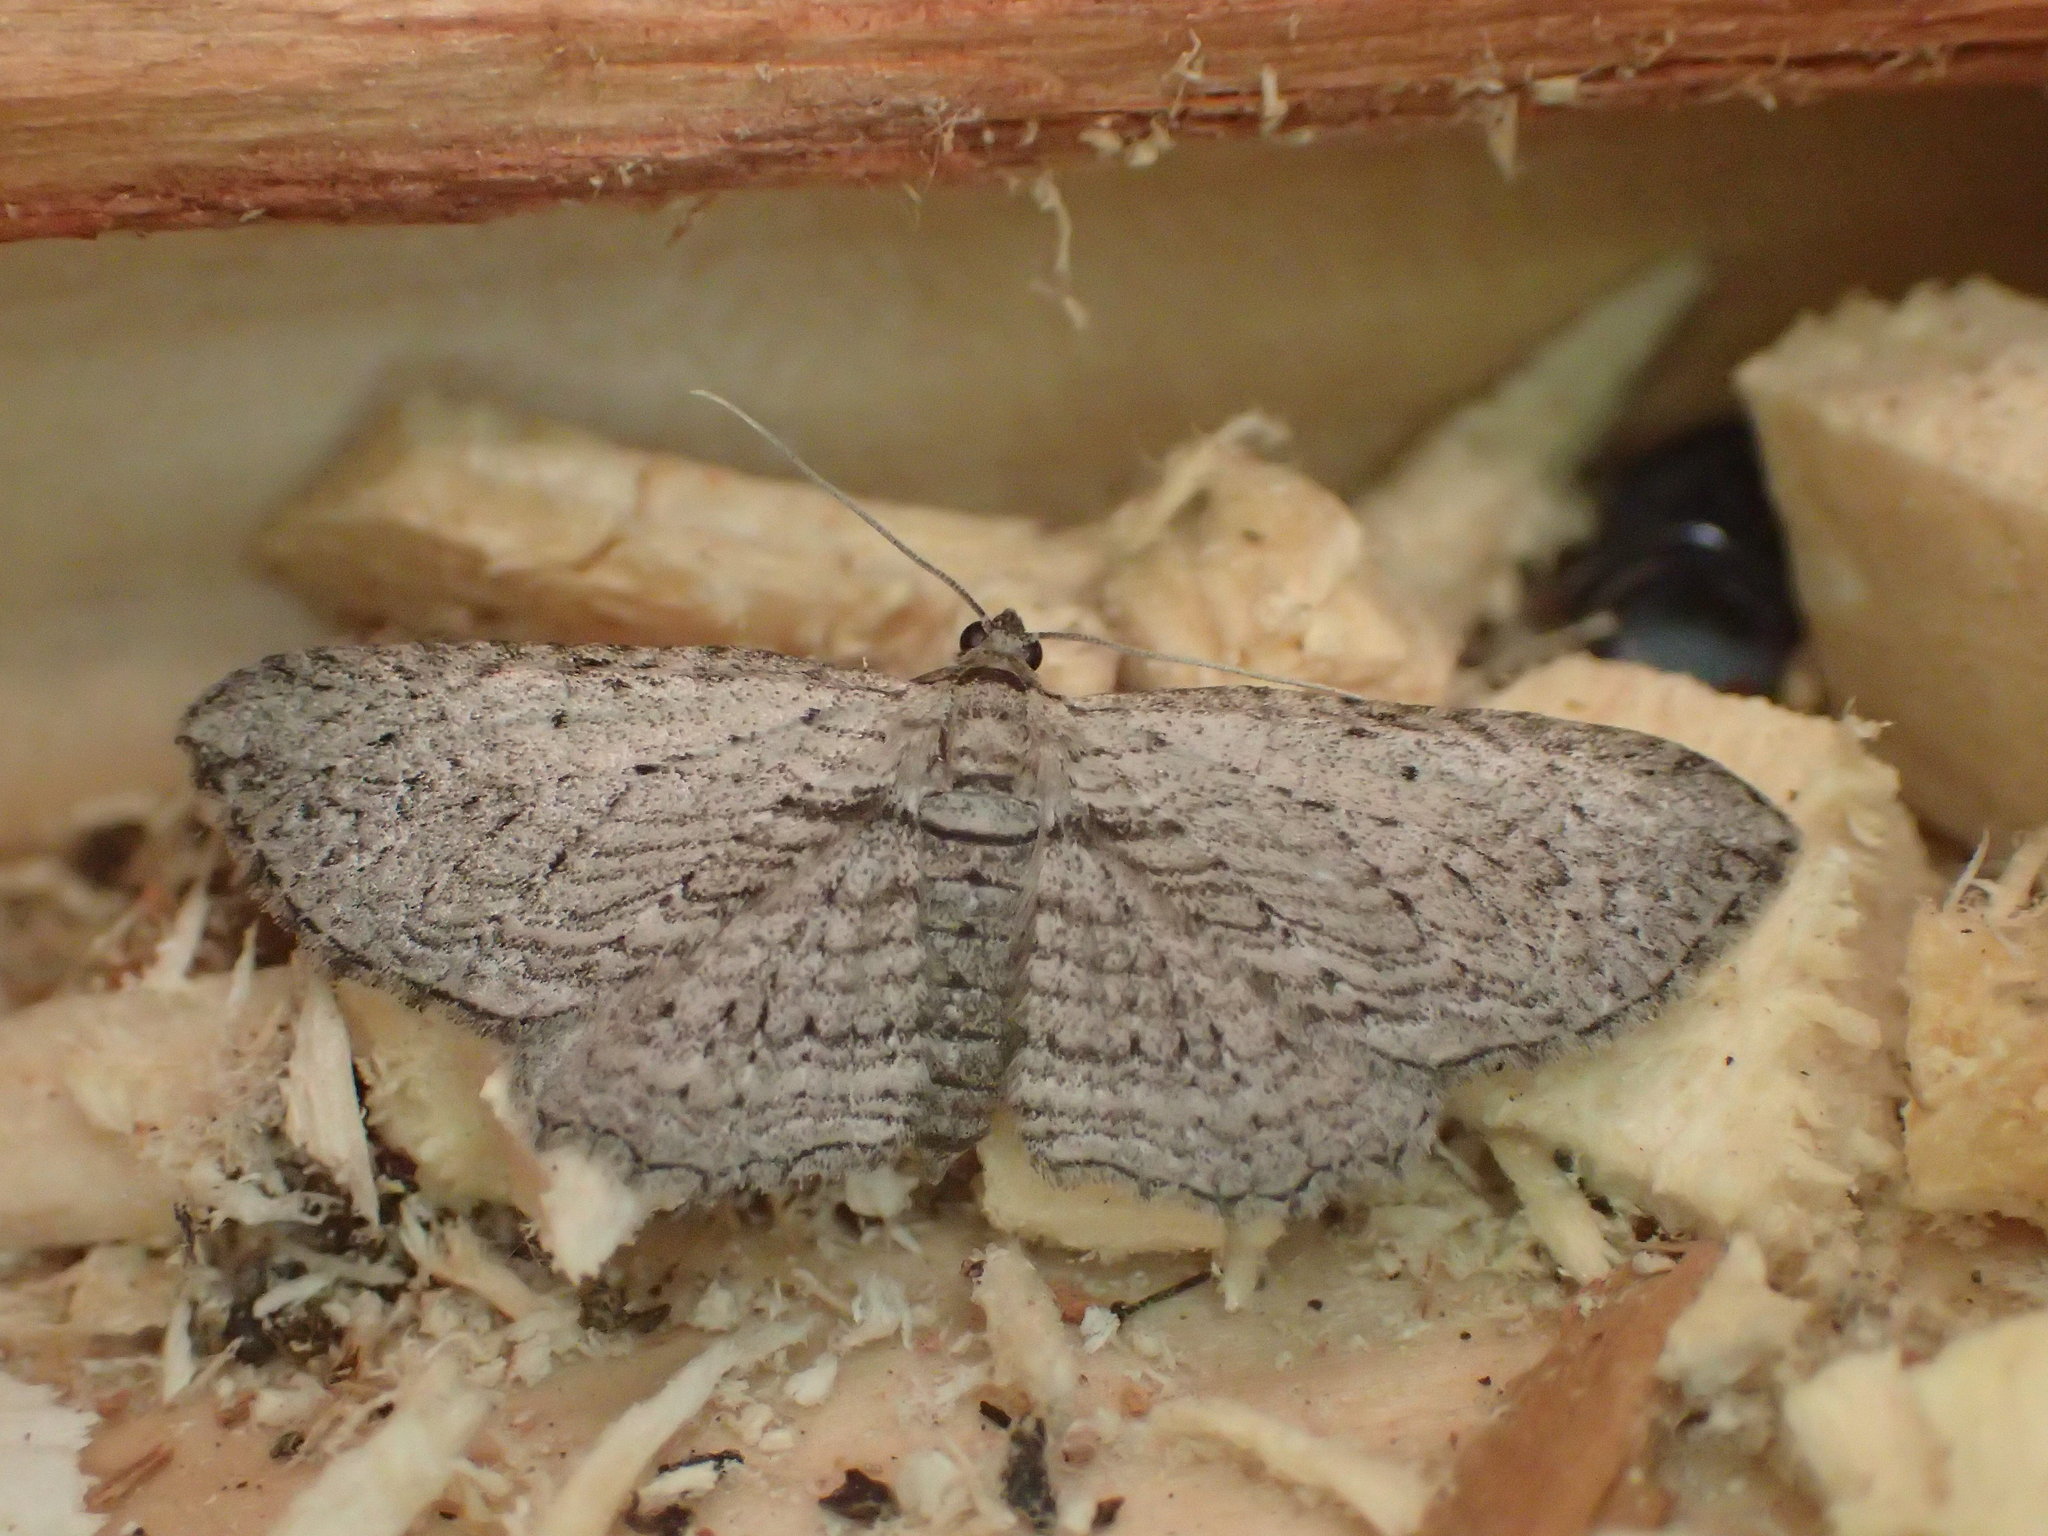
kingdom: Animalia
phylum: Arthropoda
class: Insecta
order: Lepidoptera
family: Geometridae
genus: Horisme
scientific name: Horisme intestinata
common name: Brown bark carpet
